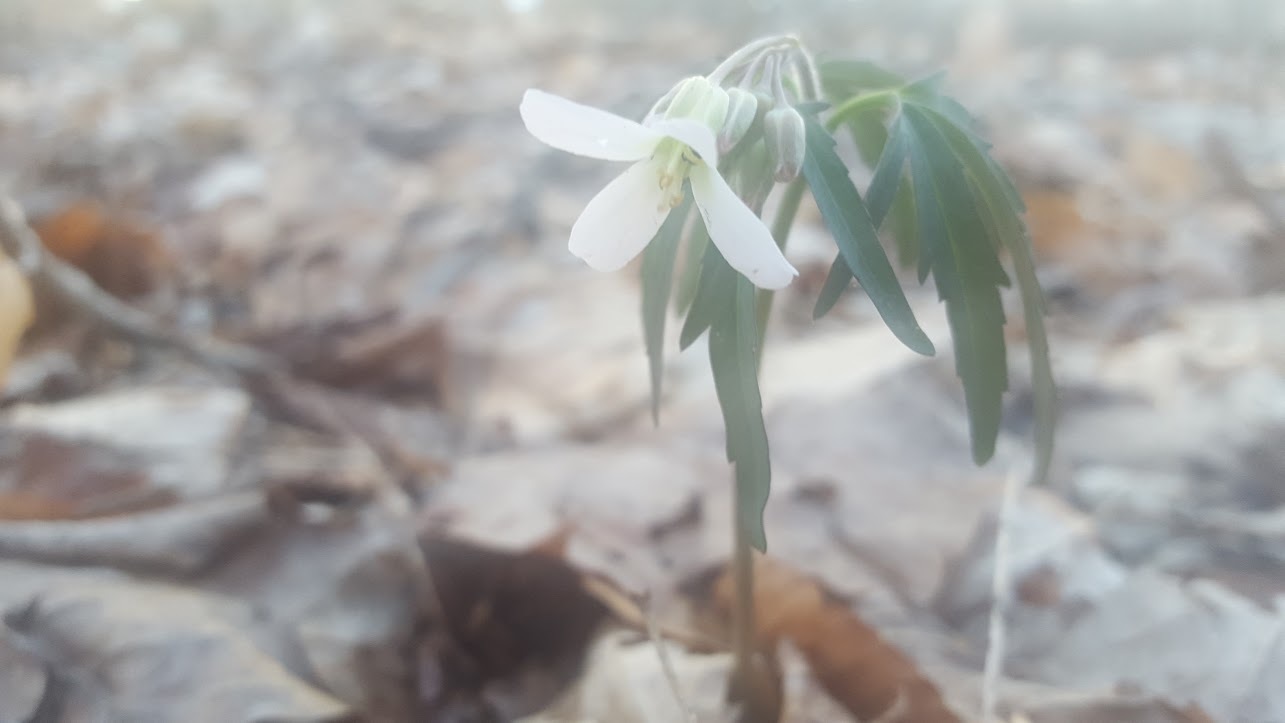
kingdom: Plantae
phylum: Tracheophyta
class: Magnoliopsida
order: Brassicales
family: Brassicaceae
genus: Cardamine
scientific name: Cardamine concatenata
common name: Cut-leaf toothcup
